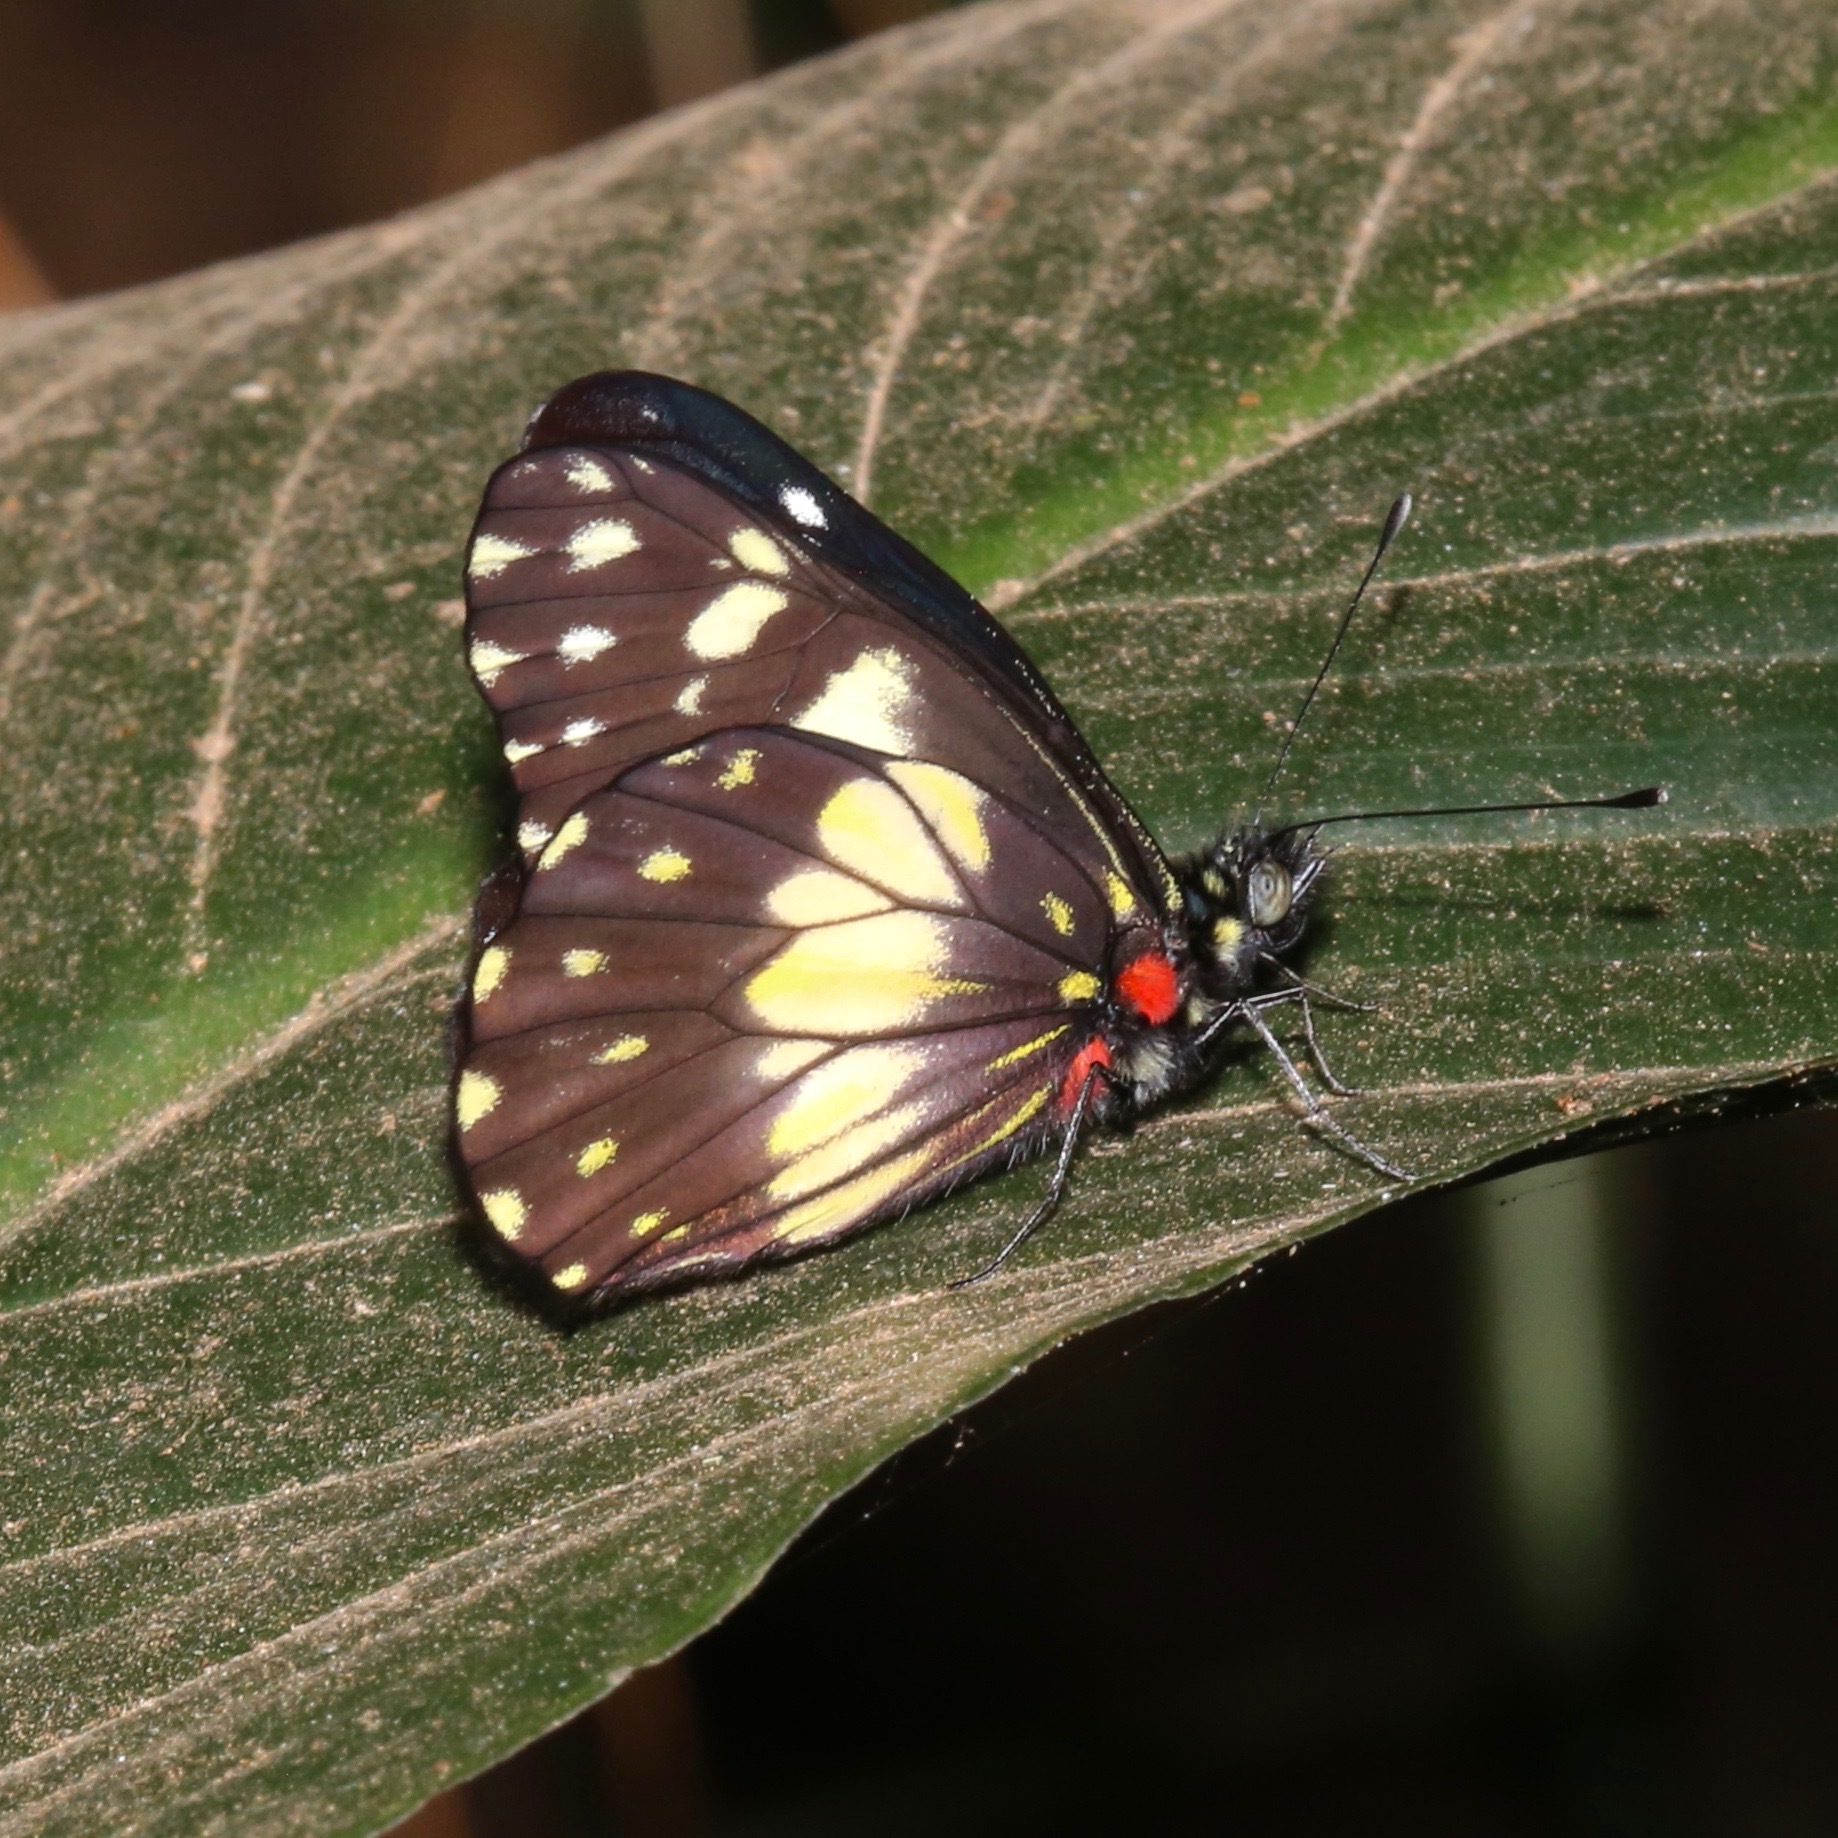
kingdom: Animalia
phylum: Arthropoda
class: Insecta
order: Lepidoptera
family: Pieridae
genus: Catasticta
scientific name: Catasticta sisamnus
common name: Sisamnus dartwhite
